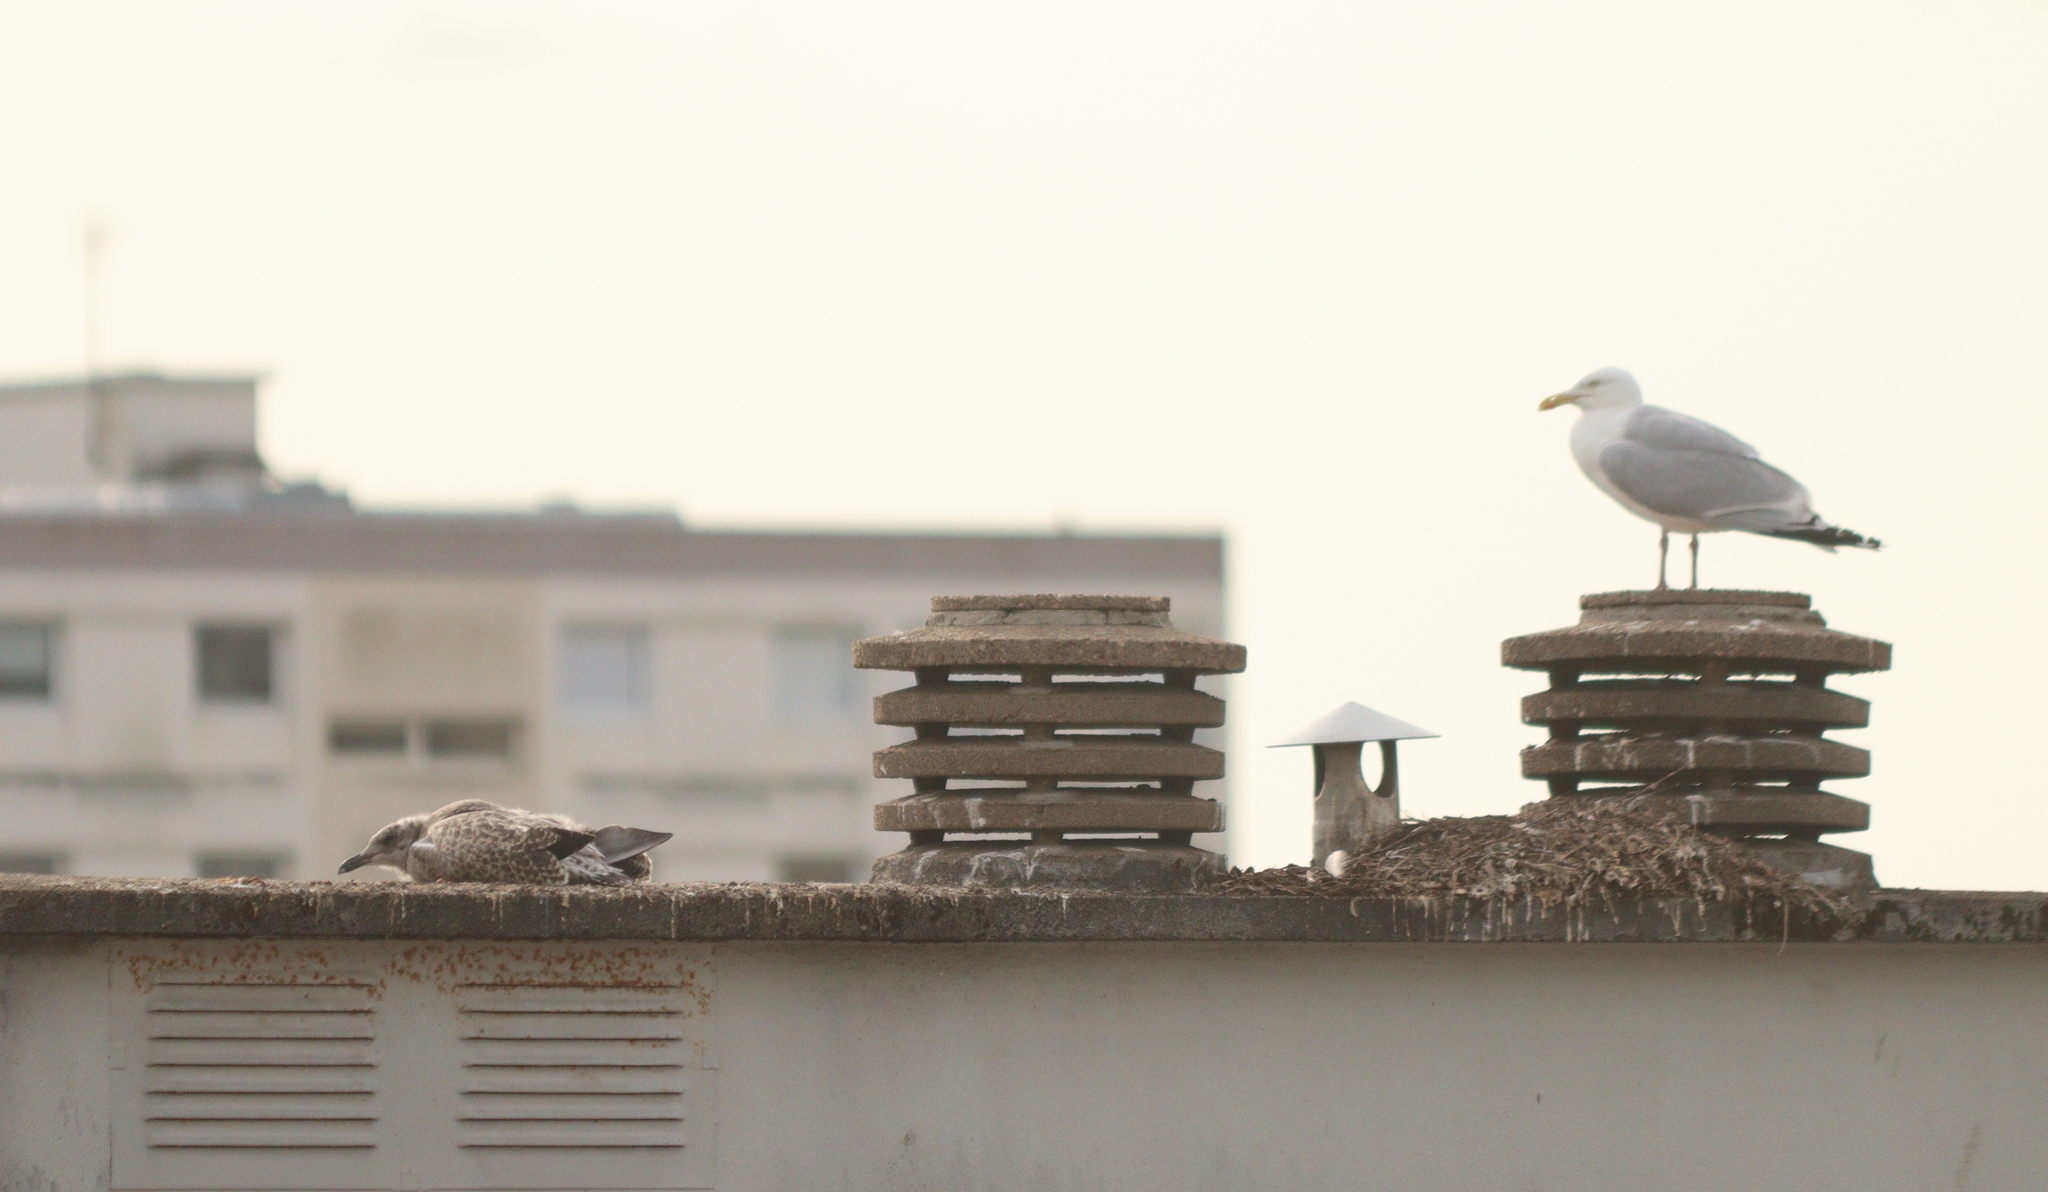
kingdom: Animalia
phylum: Chordata
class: Aves
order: Charadriiformes
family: Laridae
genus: Larus
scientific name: Larus argentatus
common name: Herring gull
